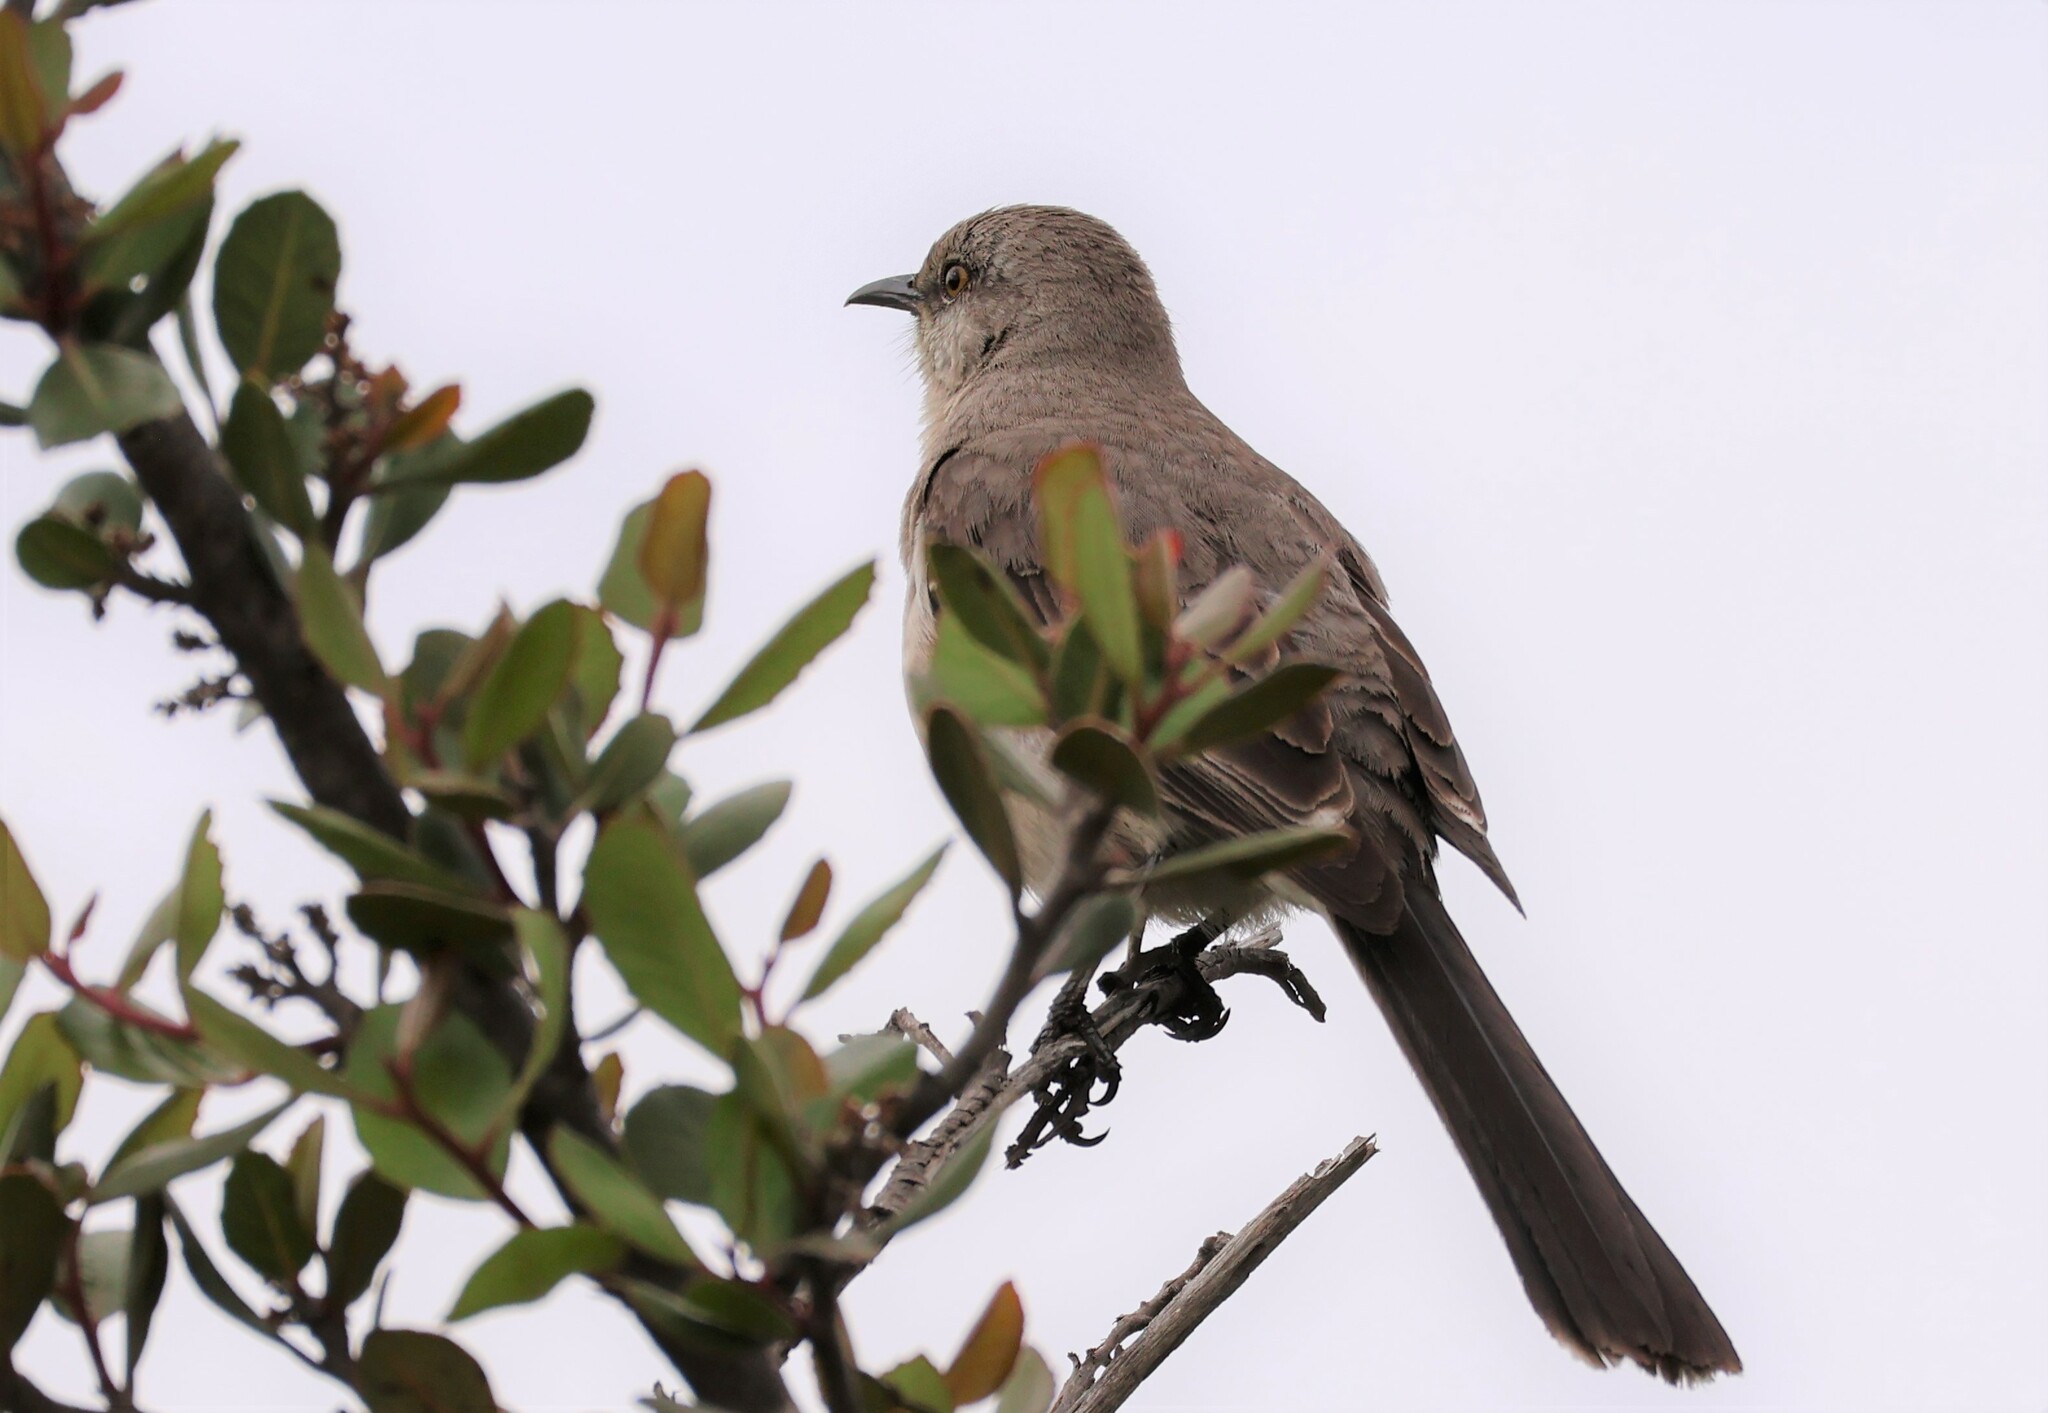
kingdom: Animalia
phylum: Chordata
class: Aves
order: Passeriformes
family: Mimidae
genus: Mimus
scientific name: Mimus polyglottos
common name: Northern mockingbird
